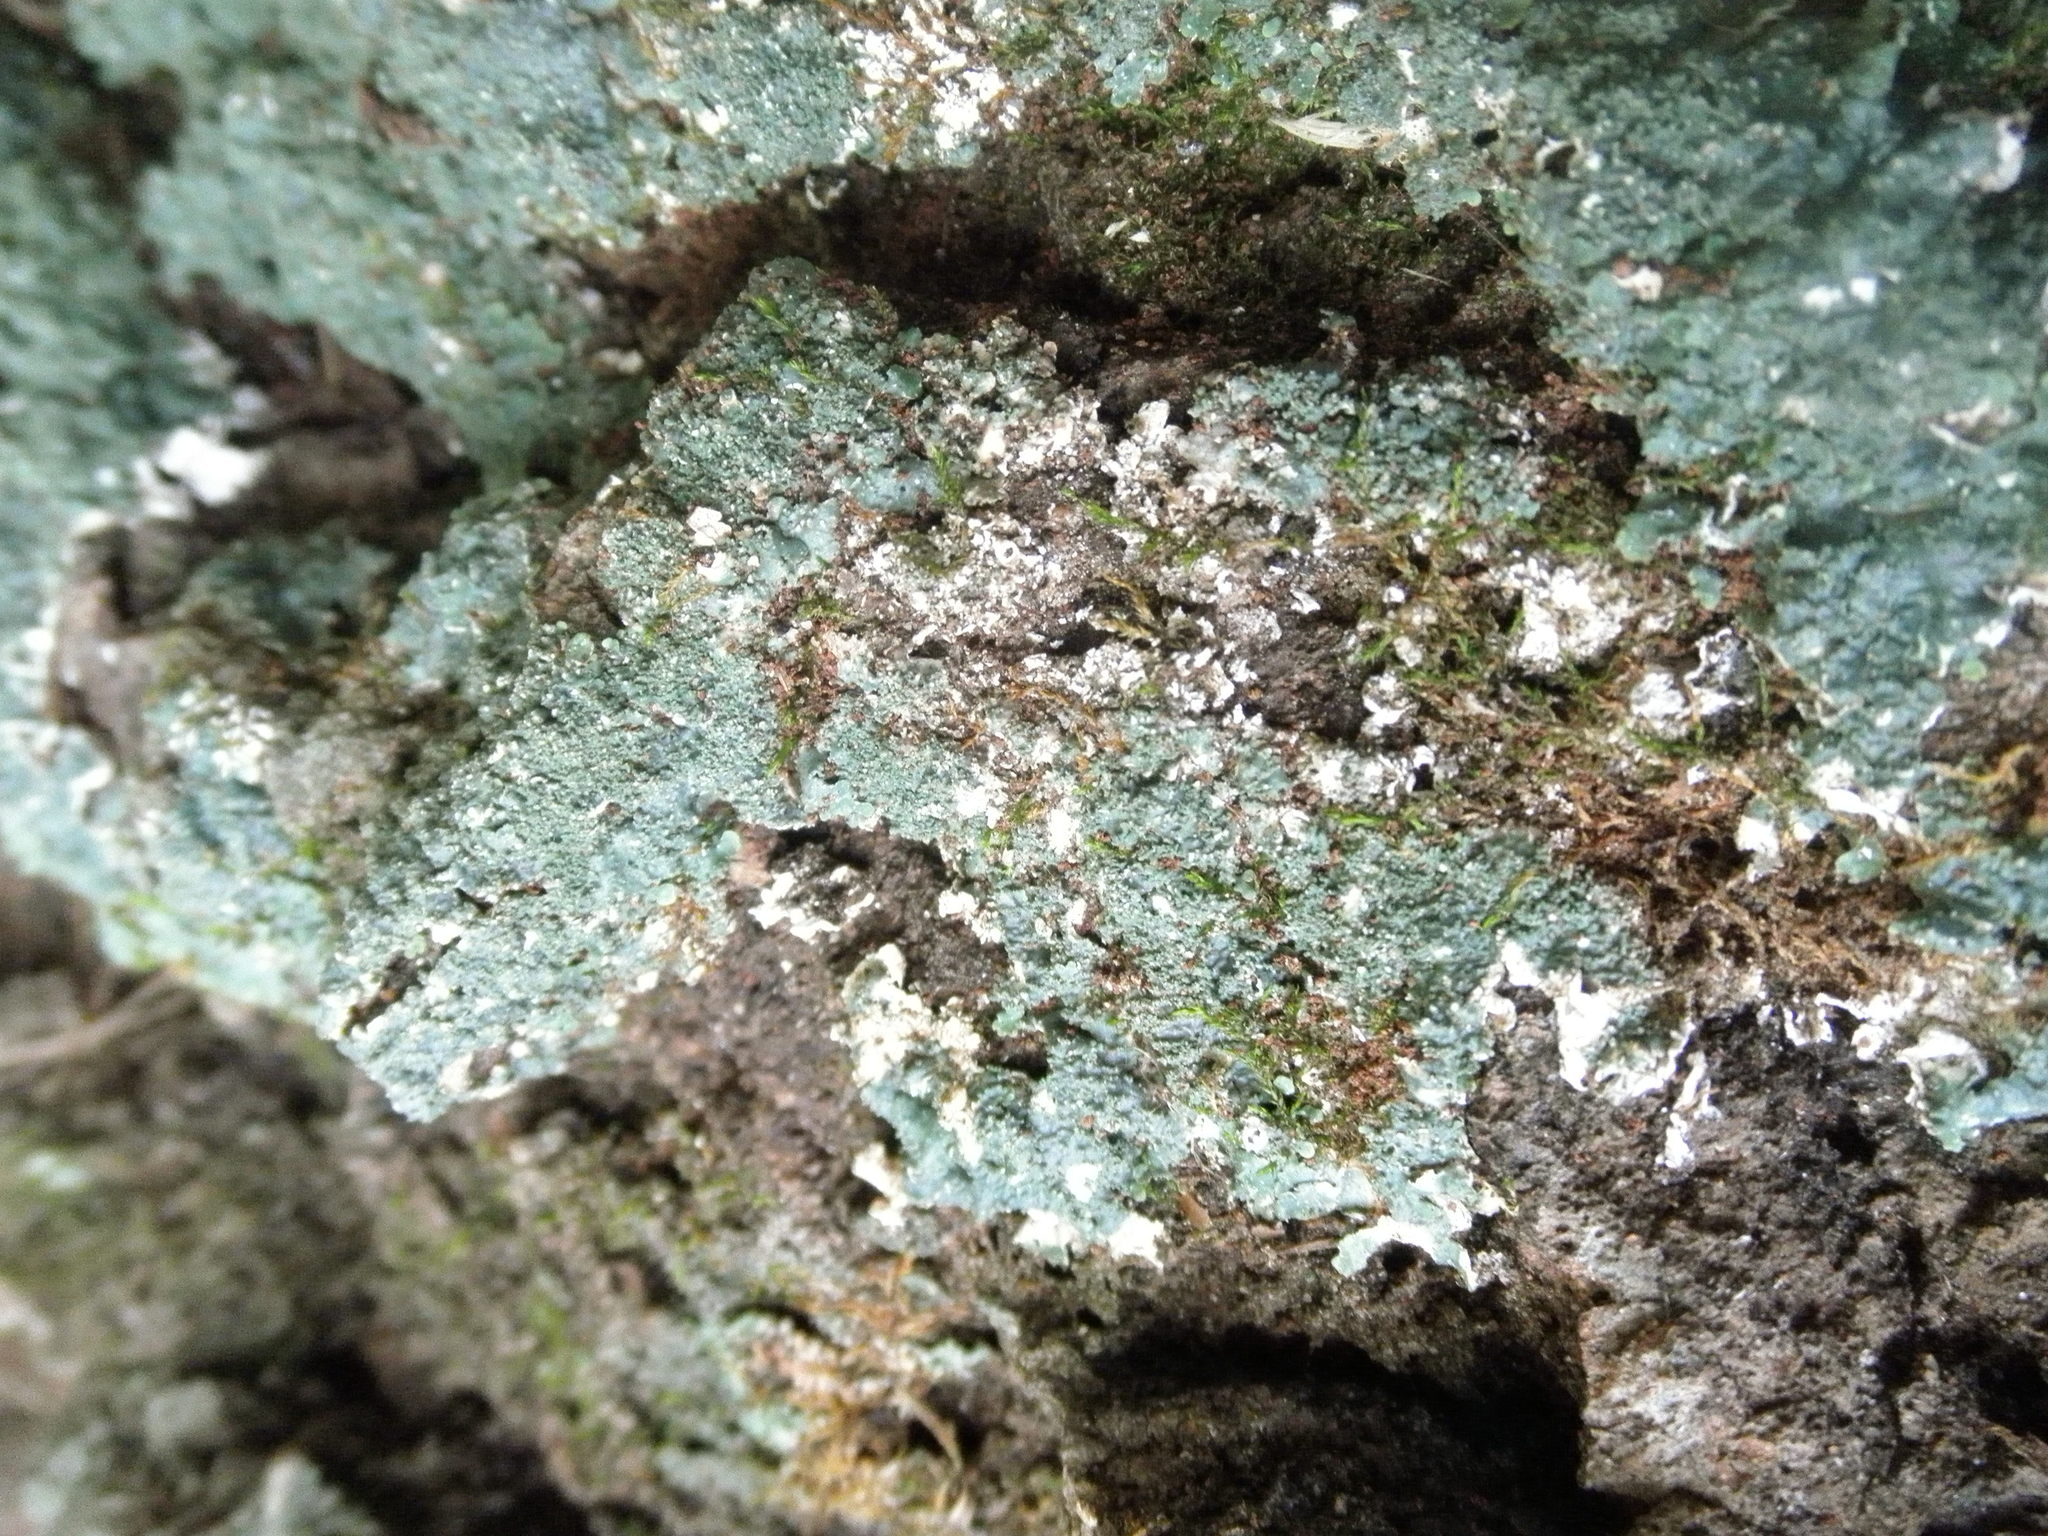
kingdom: Fungi
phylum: Ascomycota
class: Lecanoromycetes
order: Lecanorales
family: Parmeliaceae
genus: Punctelia
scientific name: Punctelia rudecta
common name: Rough speckled shield lichen
